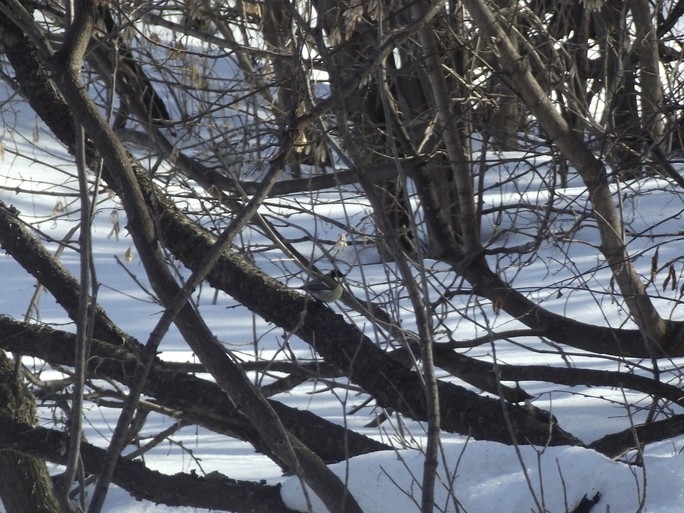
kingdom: Animalia
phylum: Chordata
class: Aves
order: Passeriformes
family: Paridae
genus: Parus
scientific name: Parus major
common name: Great tit
